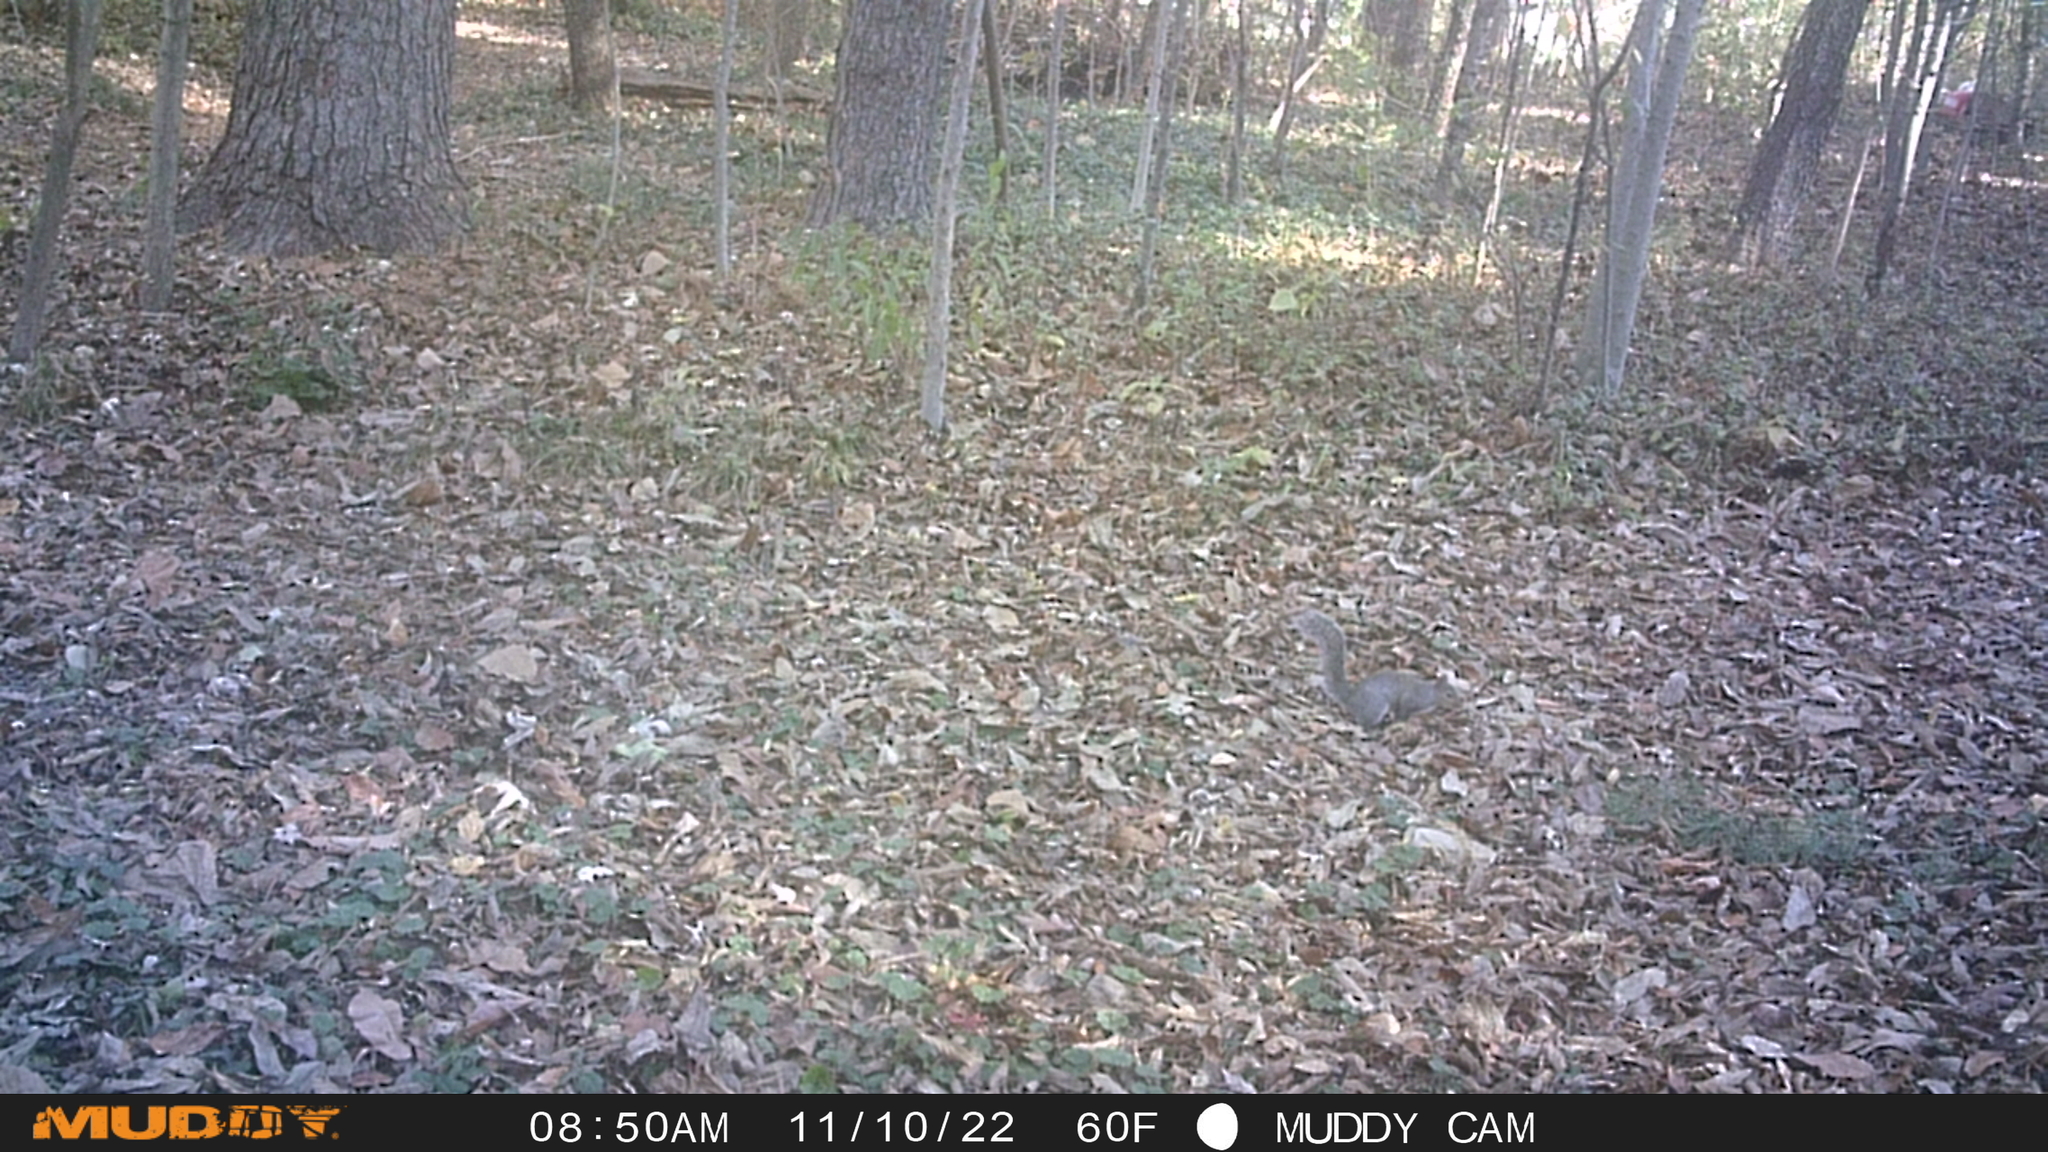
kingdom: Animalia
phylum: Chordata
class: Mammalia
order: Rodentia
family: Sciuridae
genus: Sciurus
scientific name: Sciurus carolinensis
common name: Eastern gray squirrel
